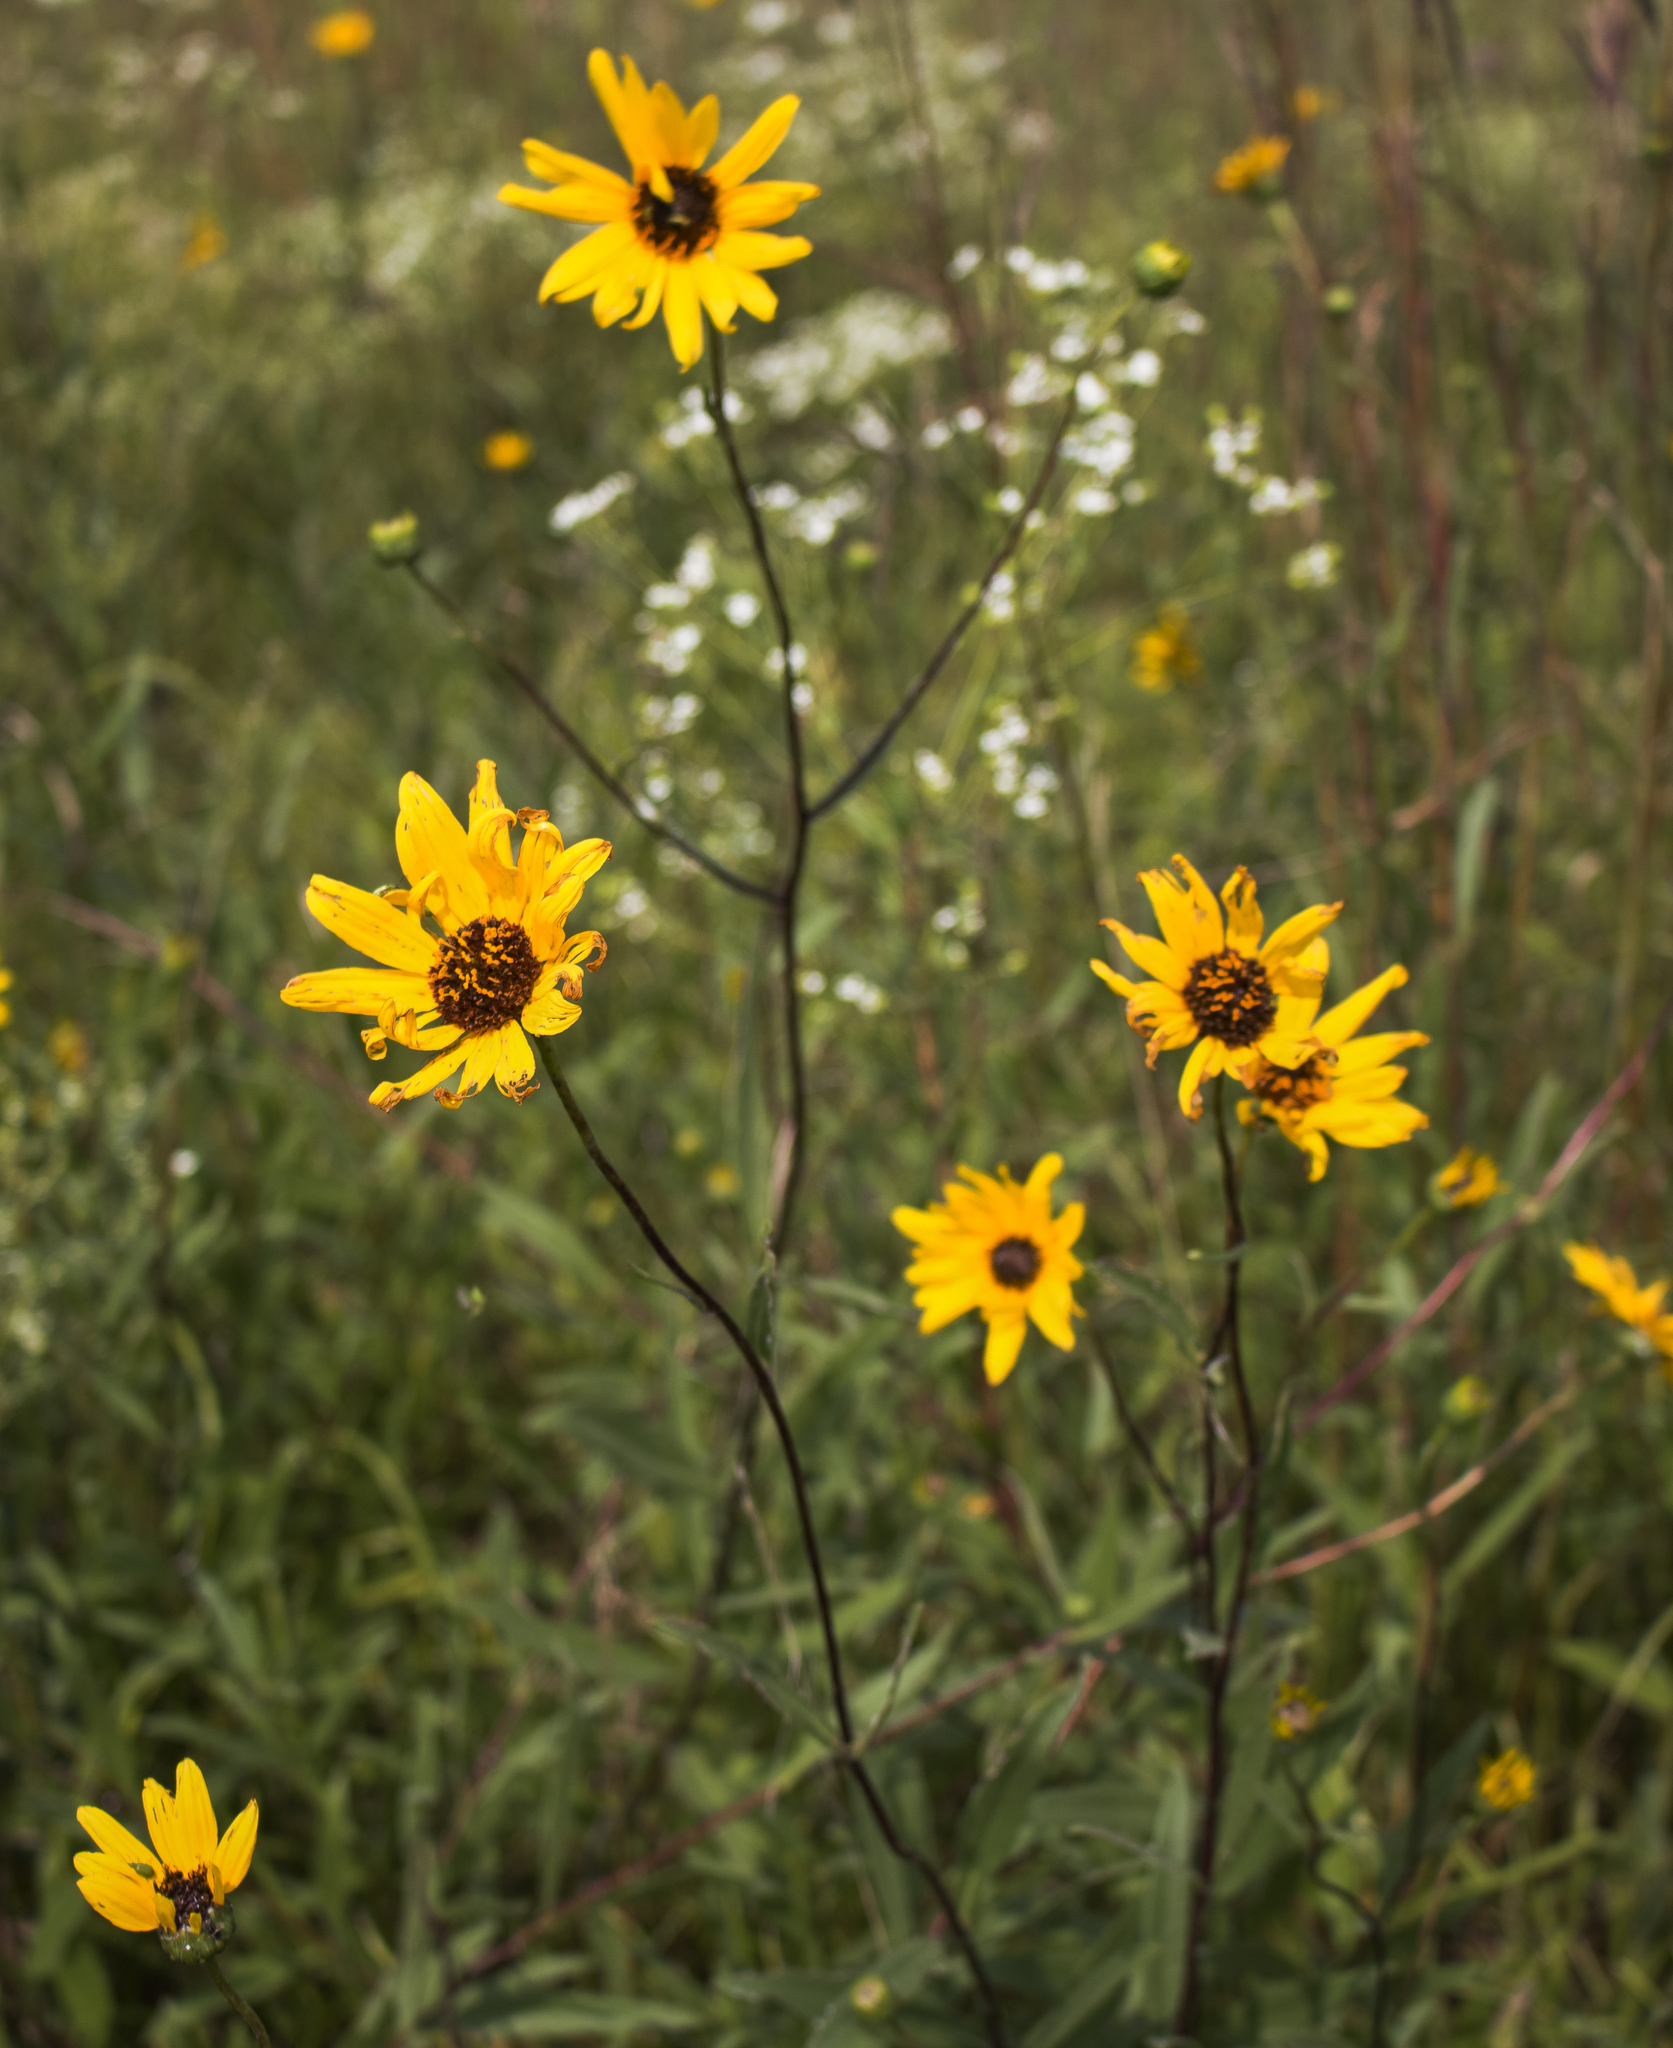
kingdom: Plantae
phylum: Tracheophyta
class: Magnoliopsida
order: Asterales
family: Asteraceae
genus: Helianthus
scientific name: Helianthus pauciflorus
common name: Stiff sunflower
